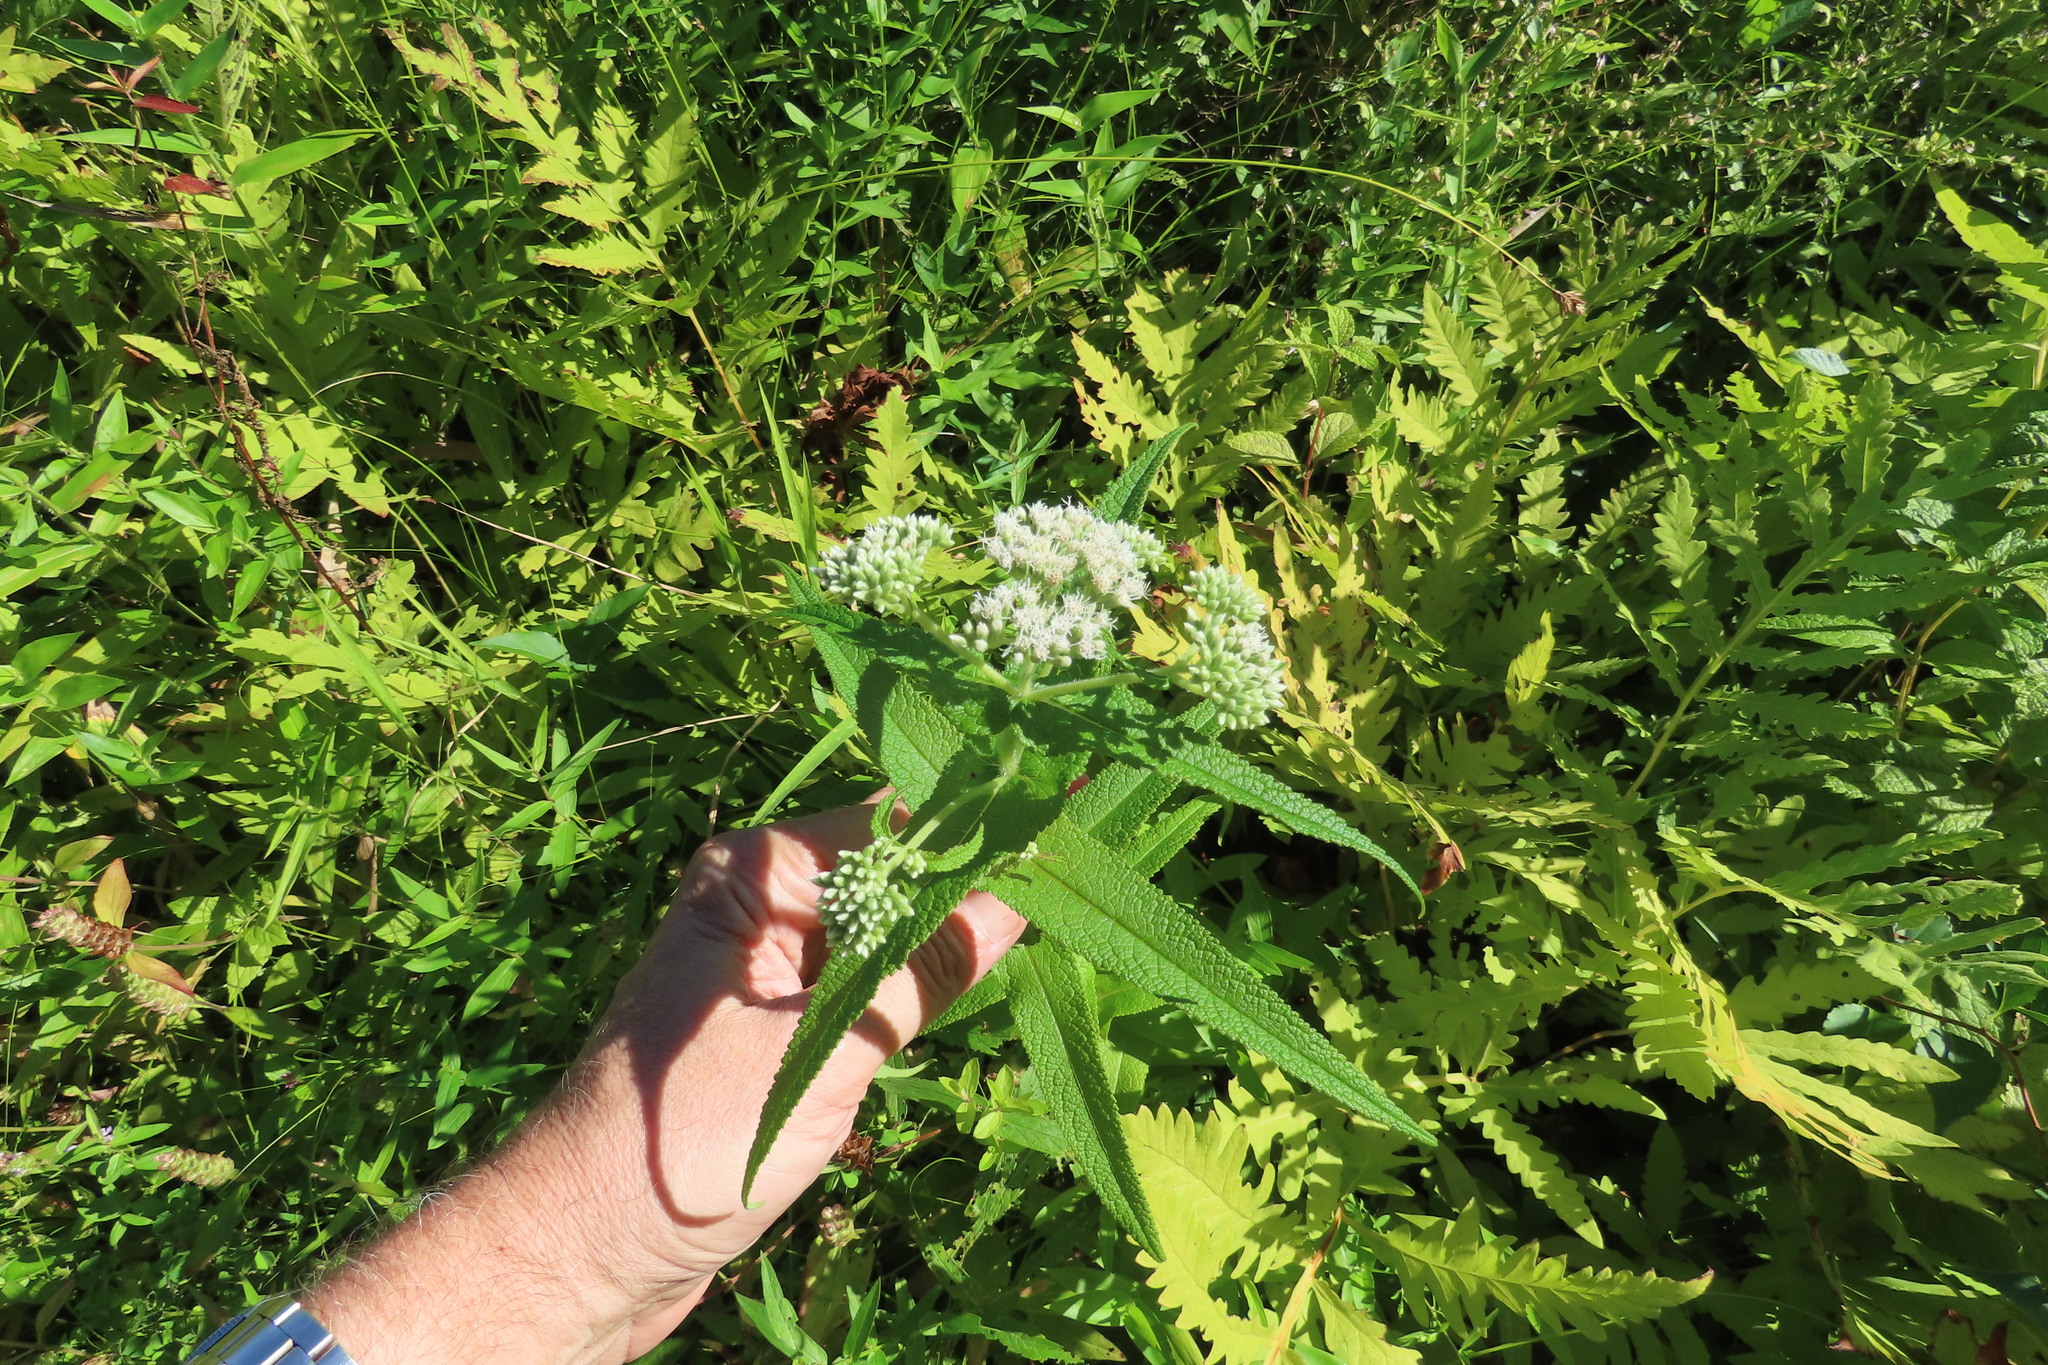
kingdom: Plantae
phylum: Tracheophyta
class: Magnoliopsida
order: Asterales
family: Asteraceae
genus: Eupatorium
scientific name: Eupatorium perfoliatum
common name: Boneset
